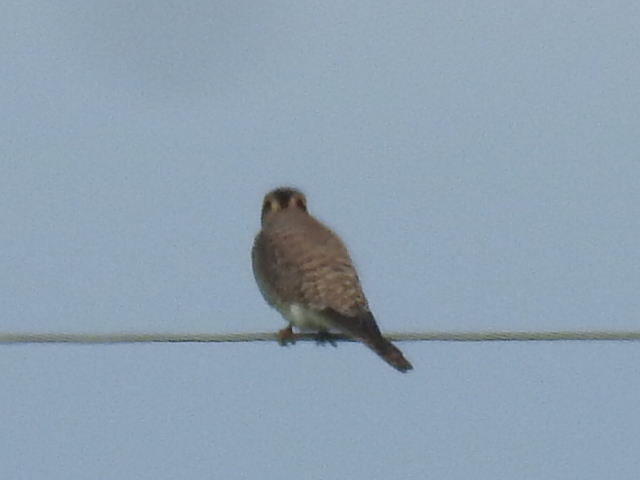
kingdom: Animalia
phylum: Chordata
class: Aves
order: Falconiformes
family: Falconidae
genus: Falco
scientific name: Falco sparverius
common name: American kestrel
